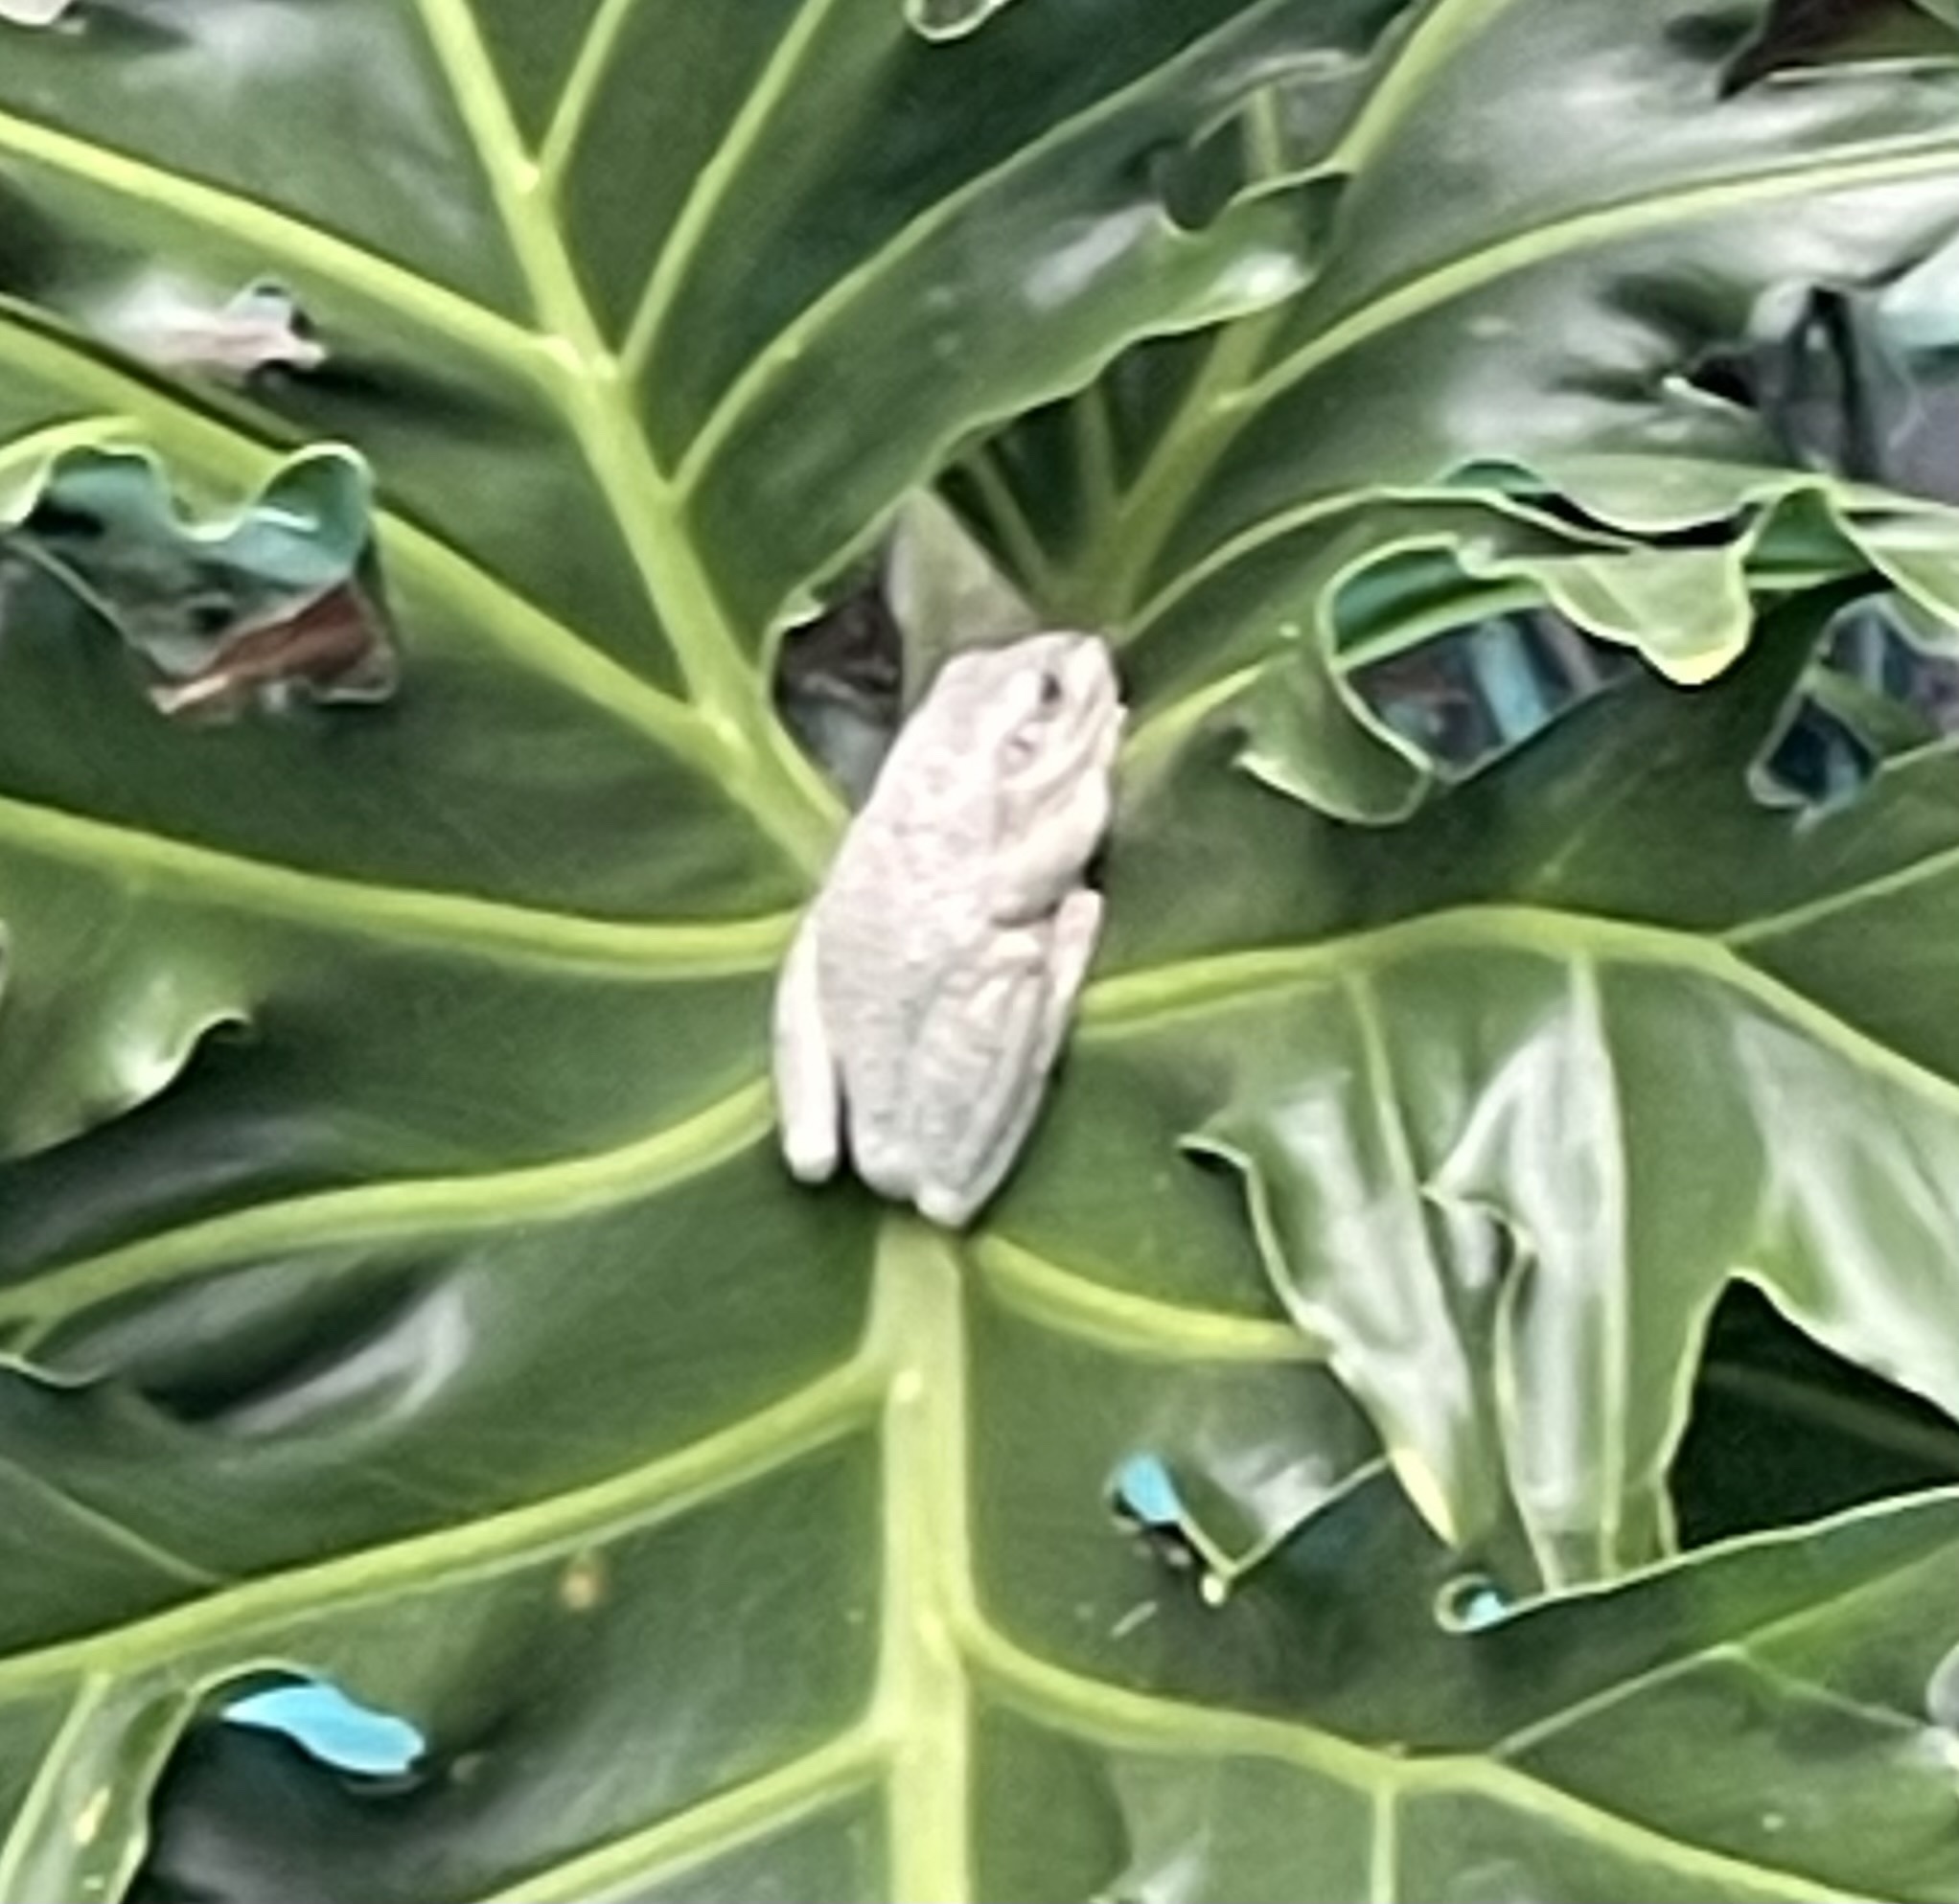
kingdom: Animalia
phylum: Chordata
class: Amphibia
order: Anura
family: Hylidae
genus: Osteopilus
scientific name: Osteopilus septentrionalis
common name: Cuban treefrog
